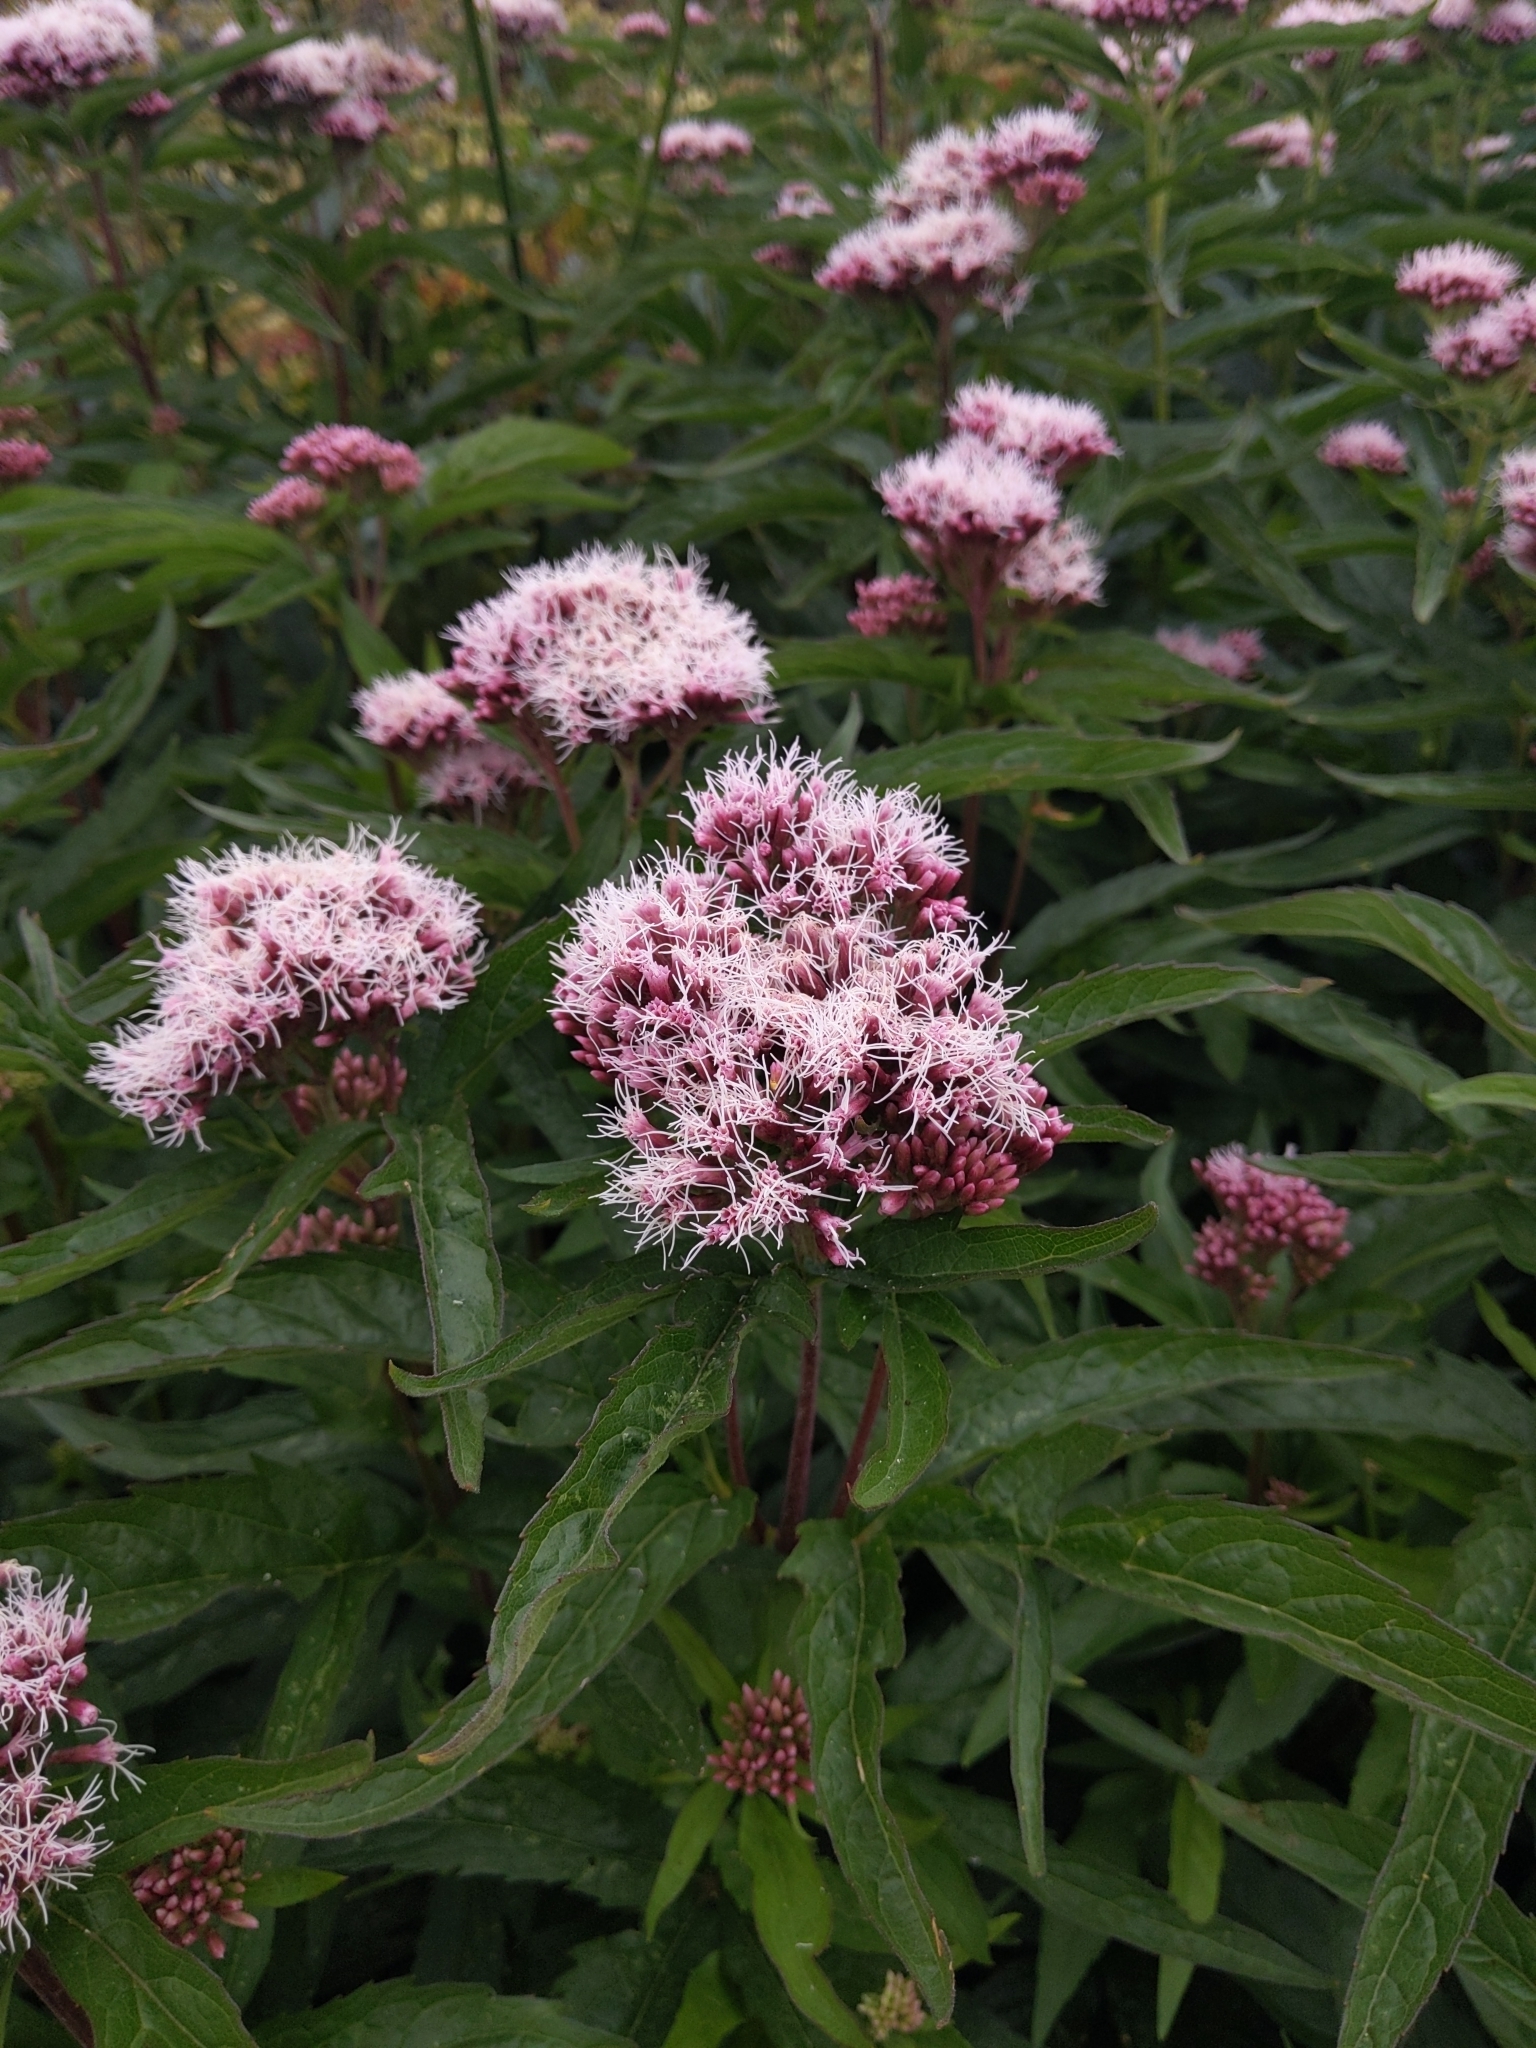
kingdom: Plantae
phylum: Tracheophyta
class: Magnoliopsida
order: Asterales
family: Asteraceae
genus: Eupatorium
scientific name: Eupatorium cannabinum
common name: Hemp-agrimony
